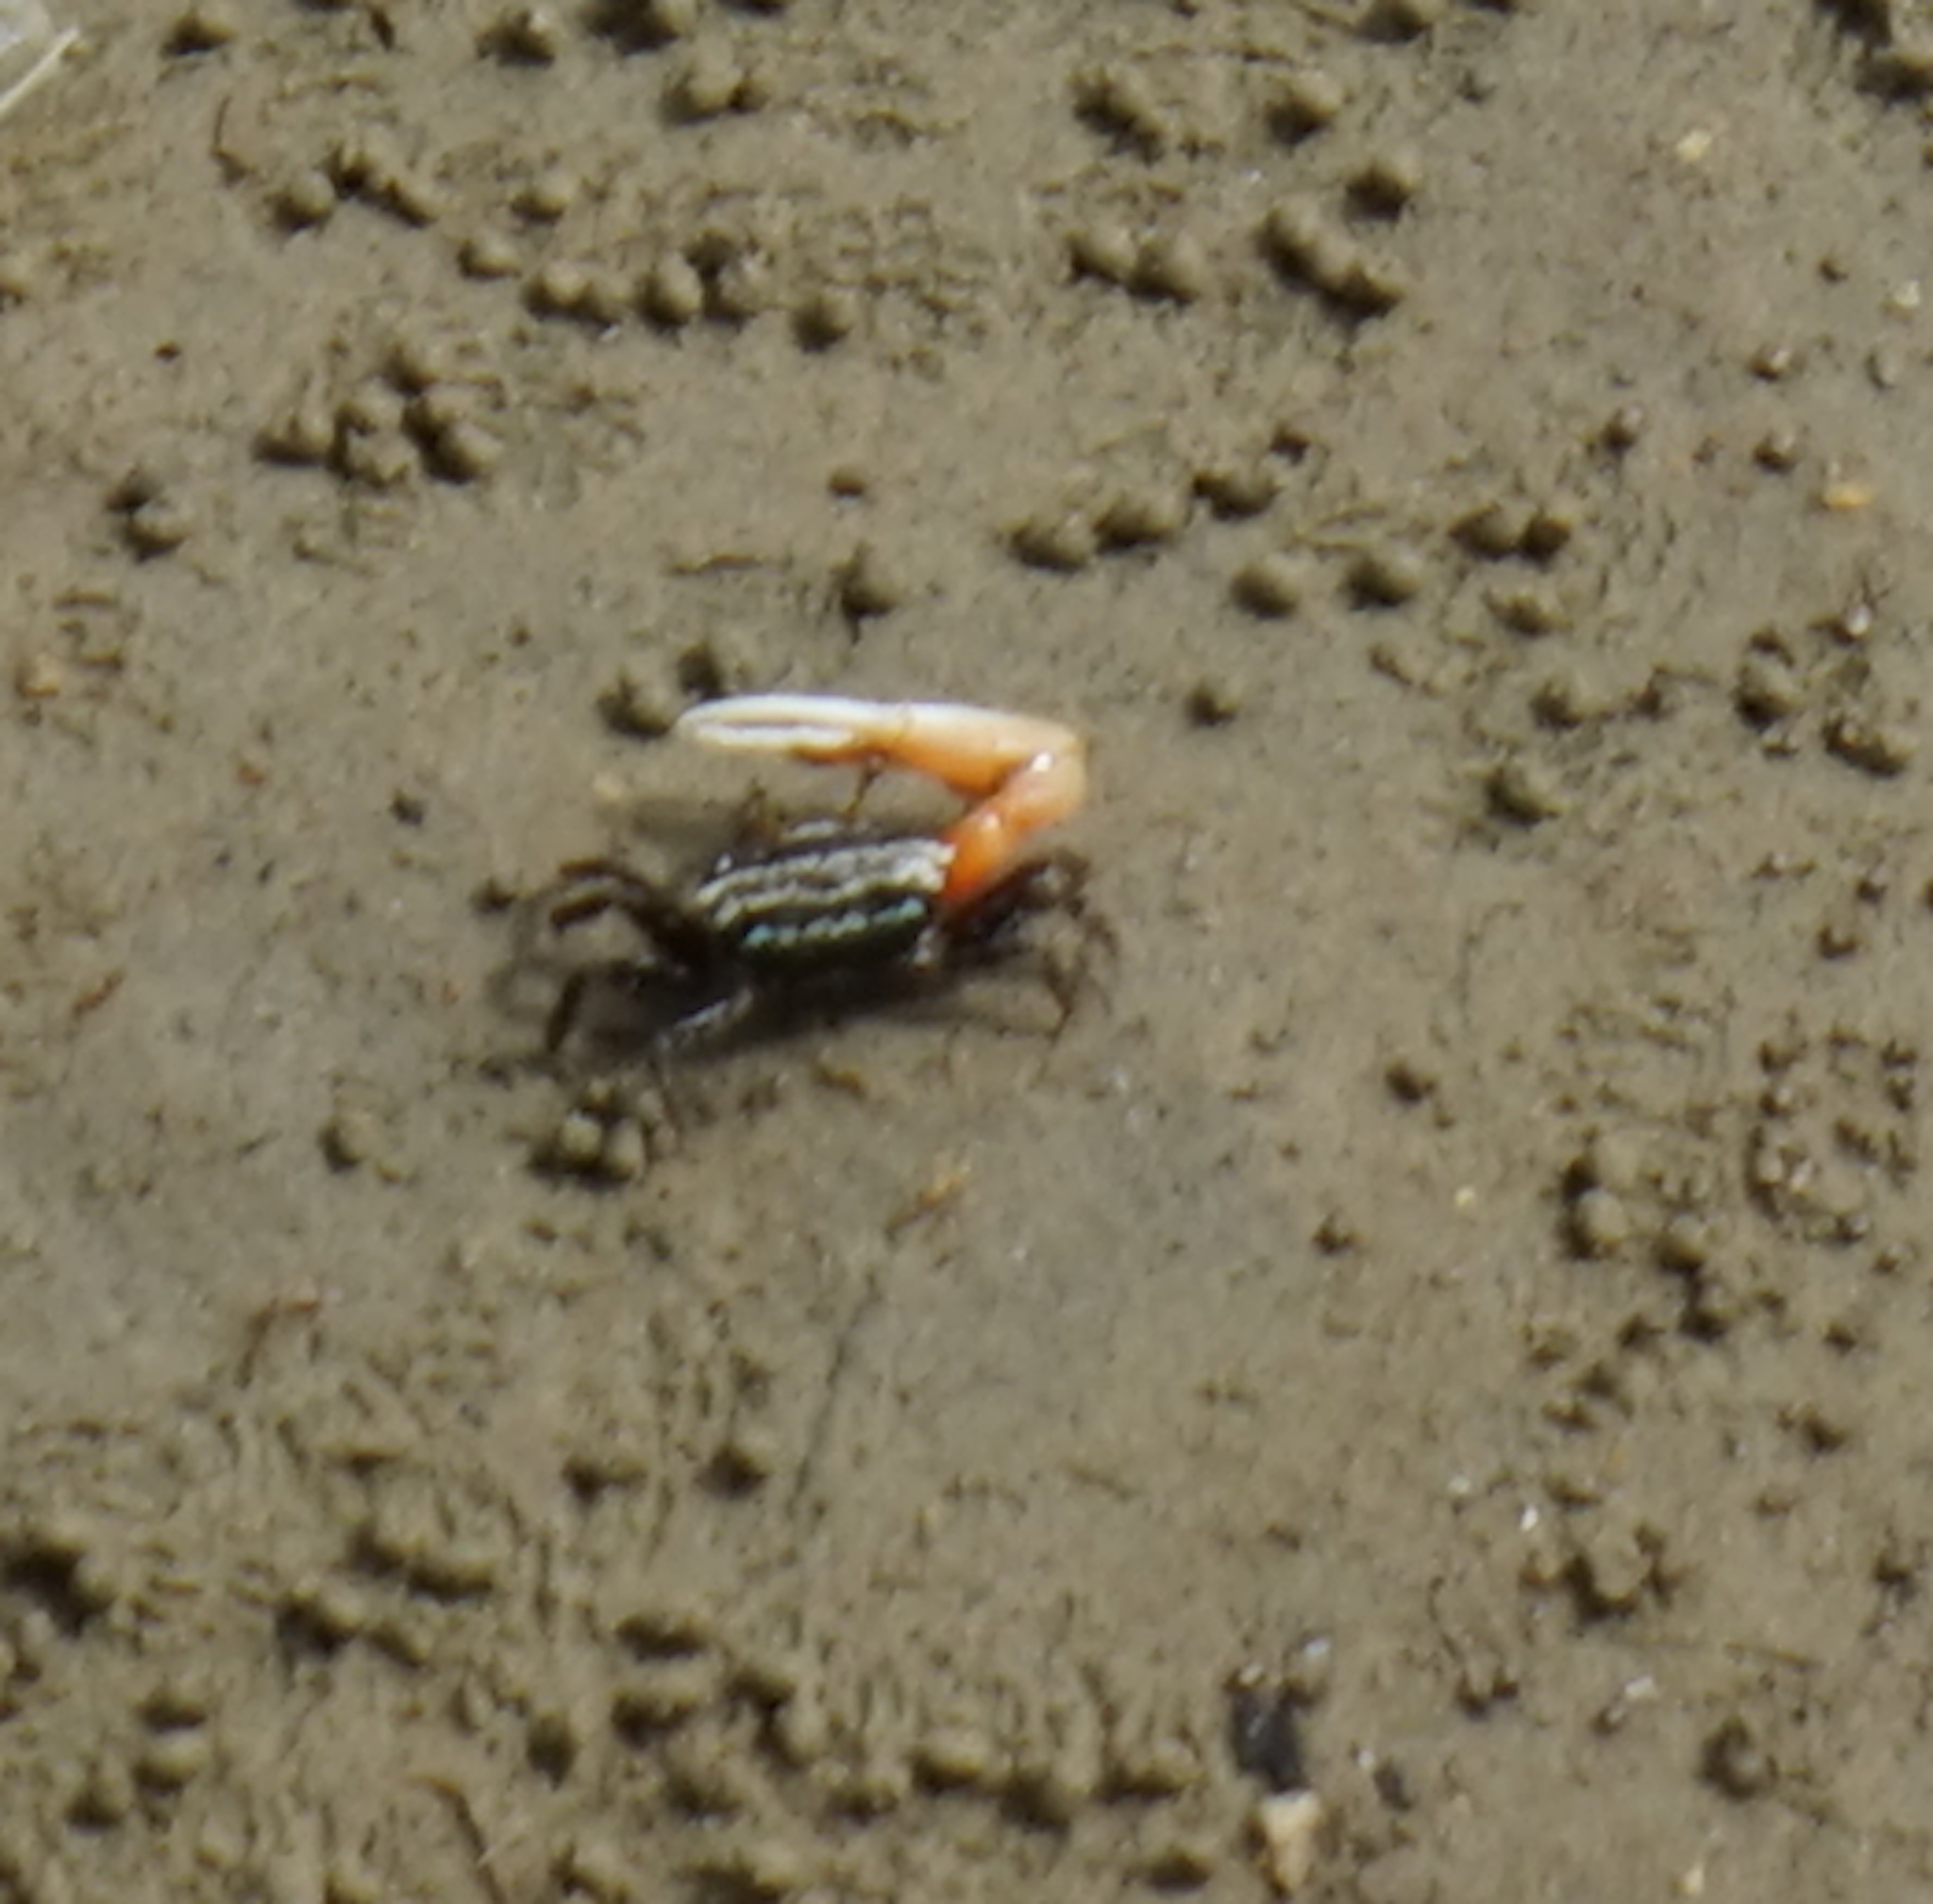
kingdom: Animalia
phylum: Arthropoda
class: Malacostraca
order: Decapoda
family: Ocypodidae
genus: Austruca
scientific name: Austruca annulipes
